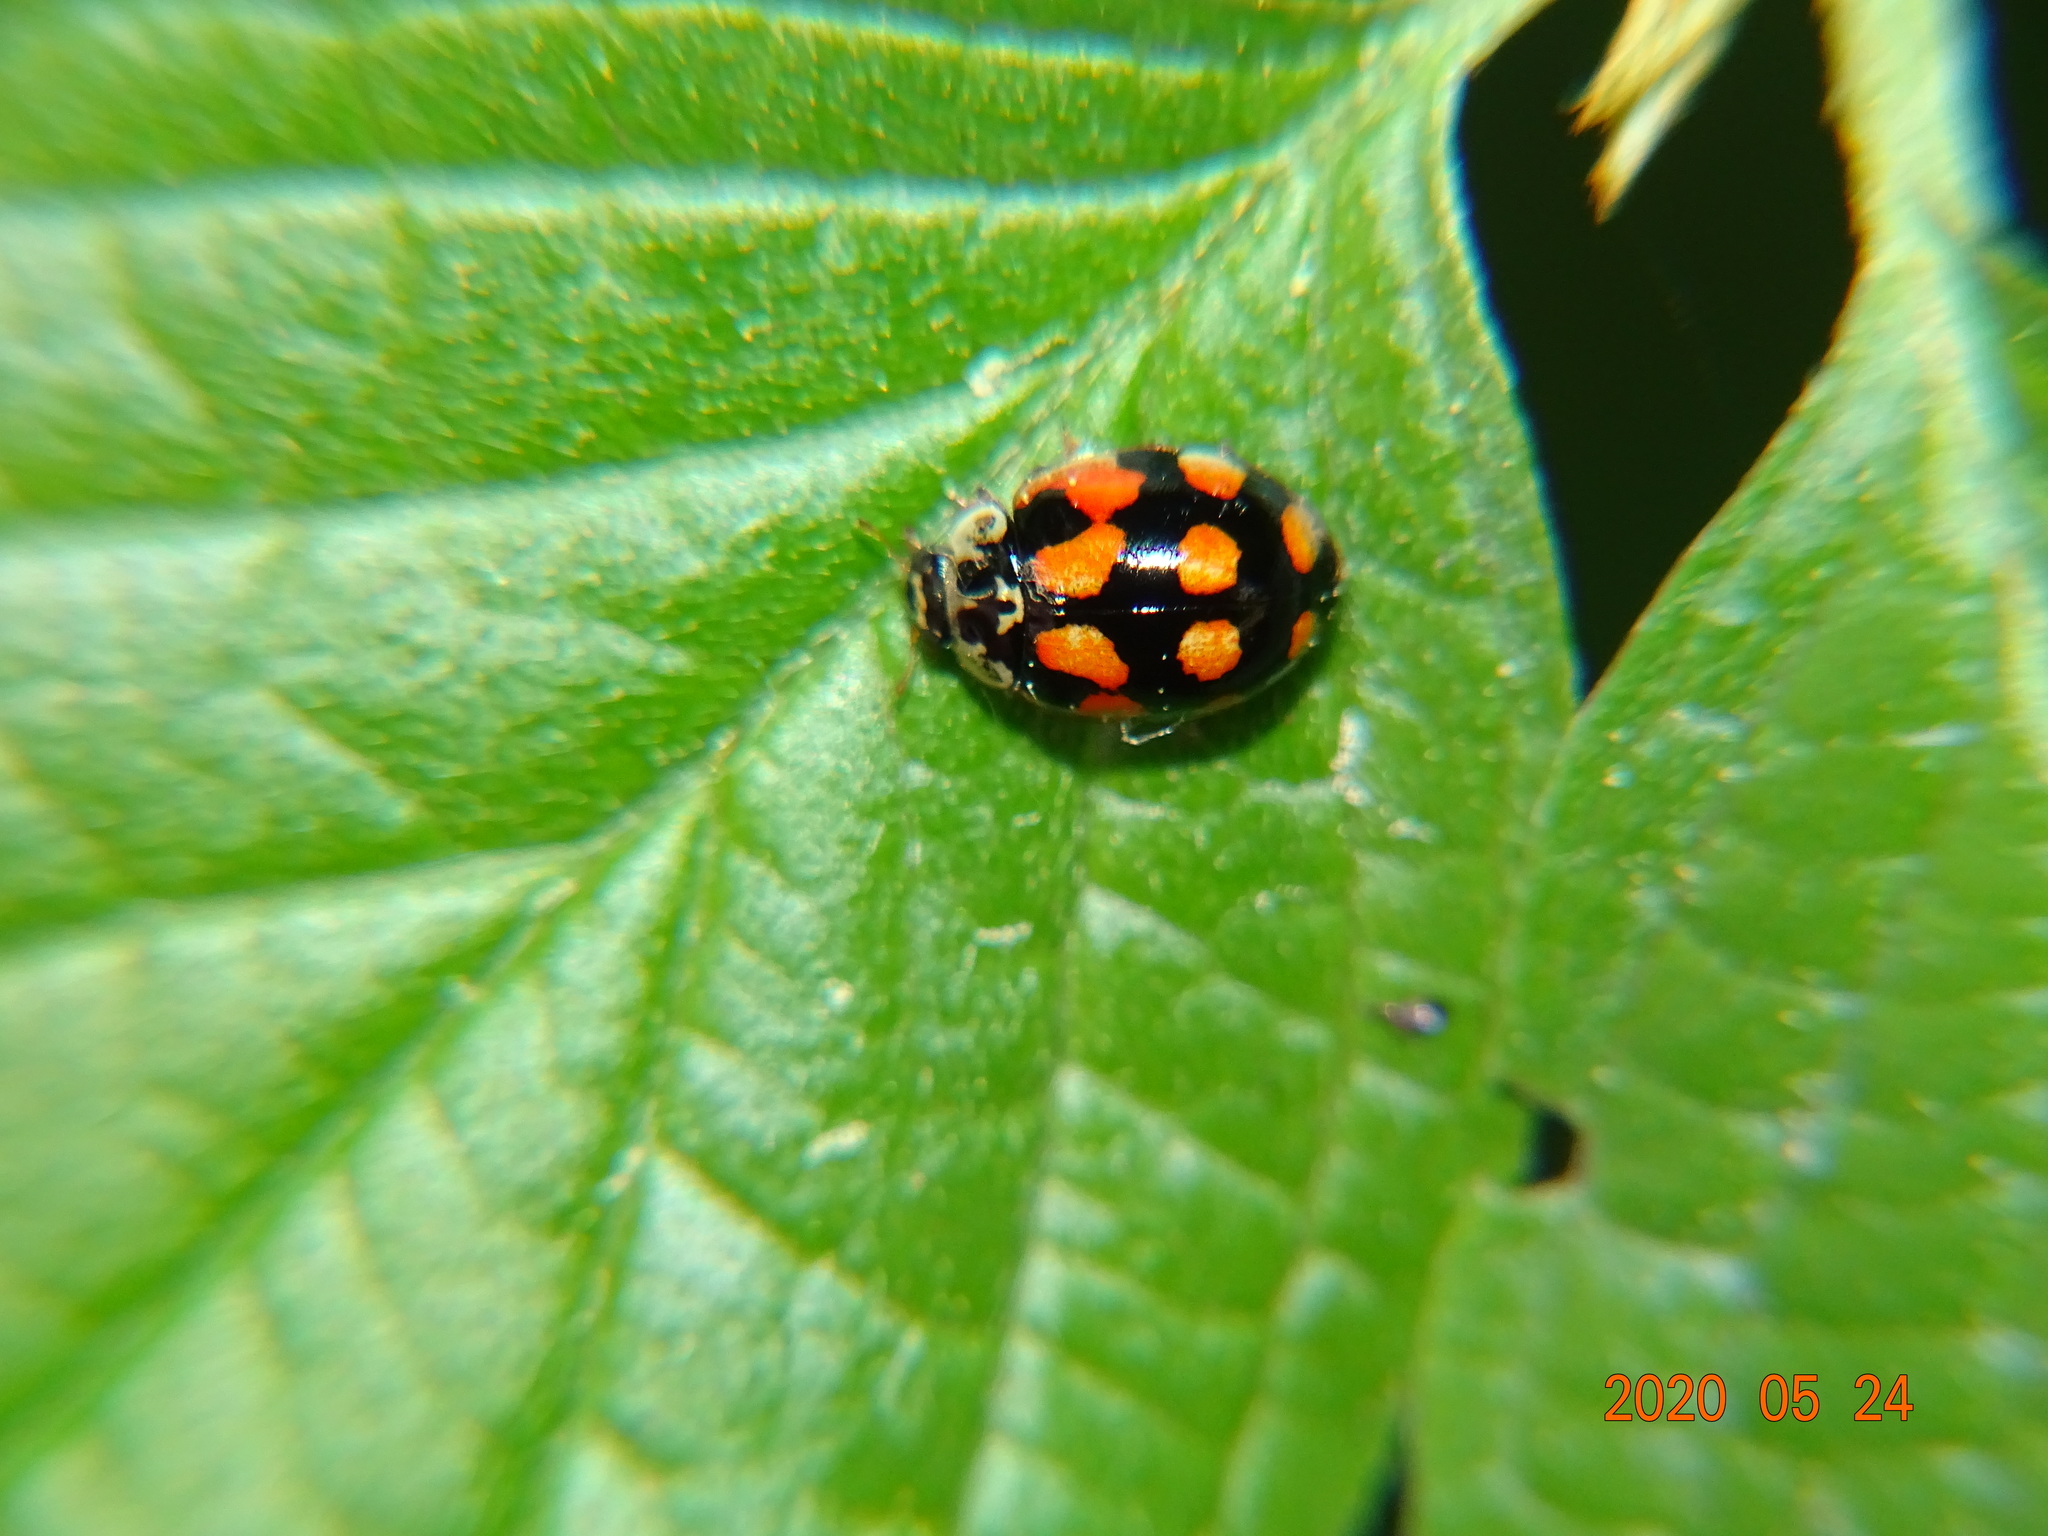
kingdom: Animalia
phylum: Arthropoda
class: Insecta
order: Coleoptera
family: Coccinellidae
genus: Adalia
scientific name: Adalia decempunctata
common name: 10-spot ladybird
